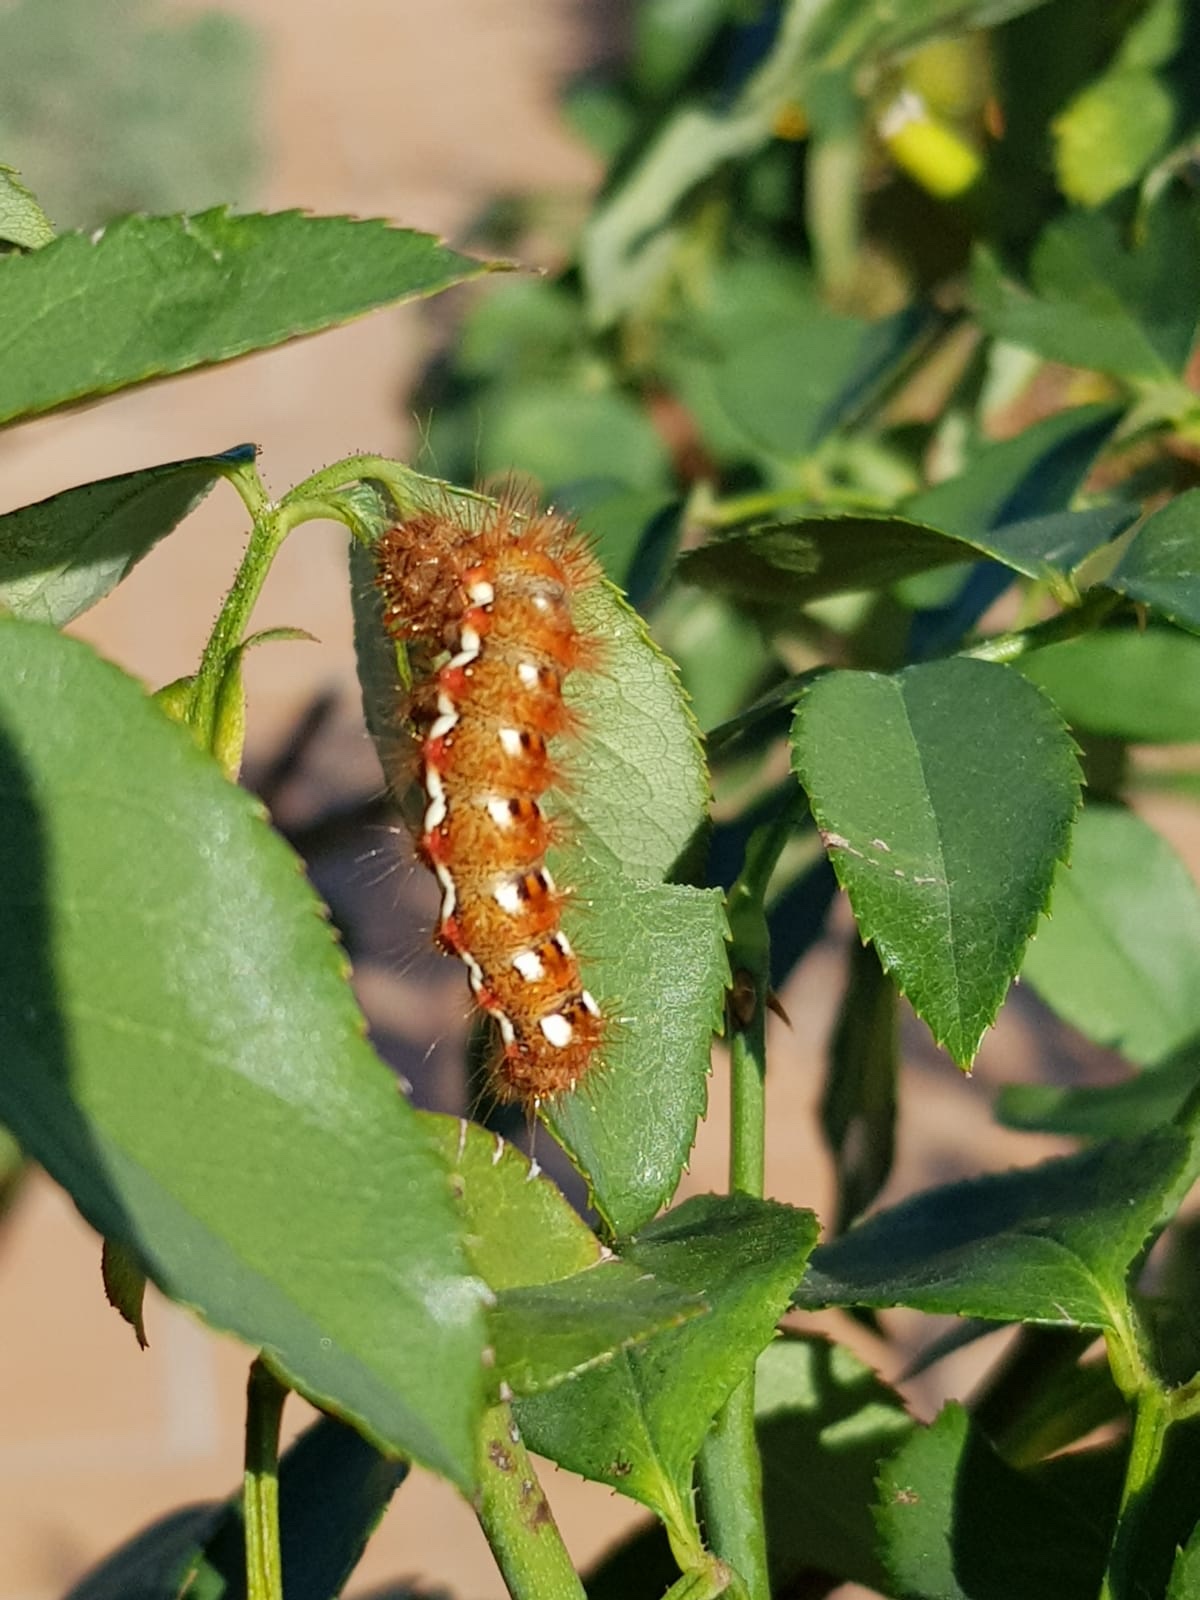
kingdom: Animalia
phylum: Arthropoda
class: Insecta
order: Lepidoptera
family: Noctuidae
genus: Acronicta
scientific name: Acronicta rumicis
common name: Knot grass
